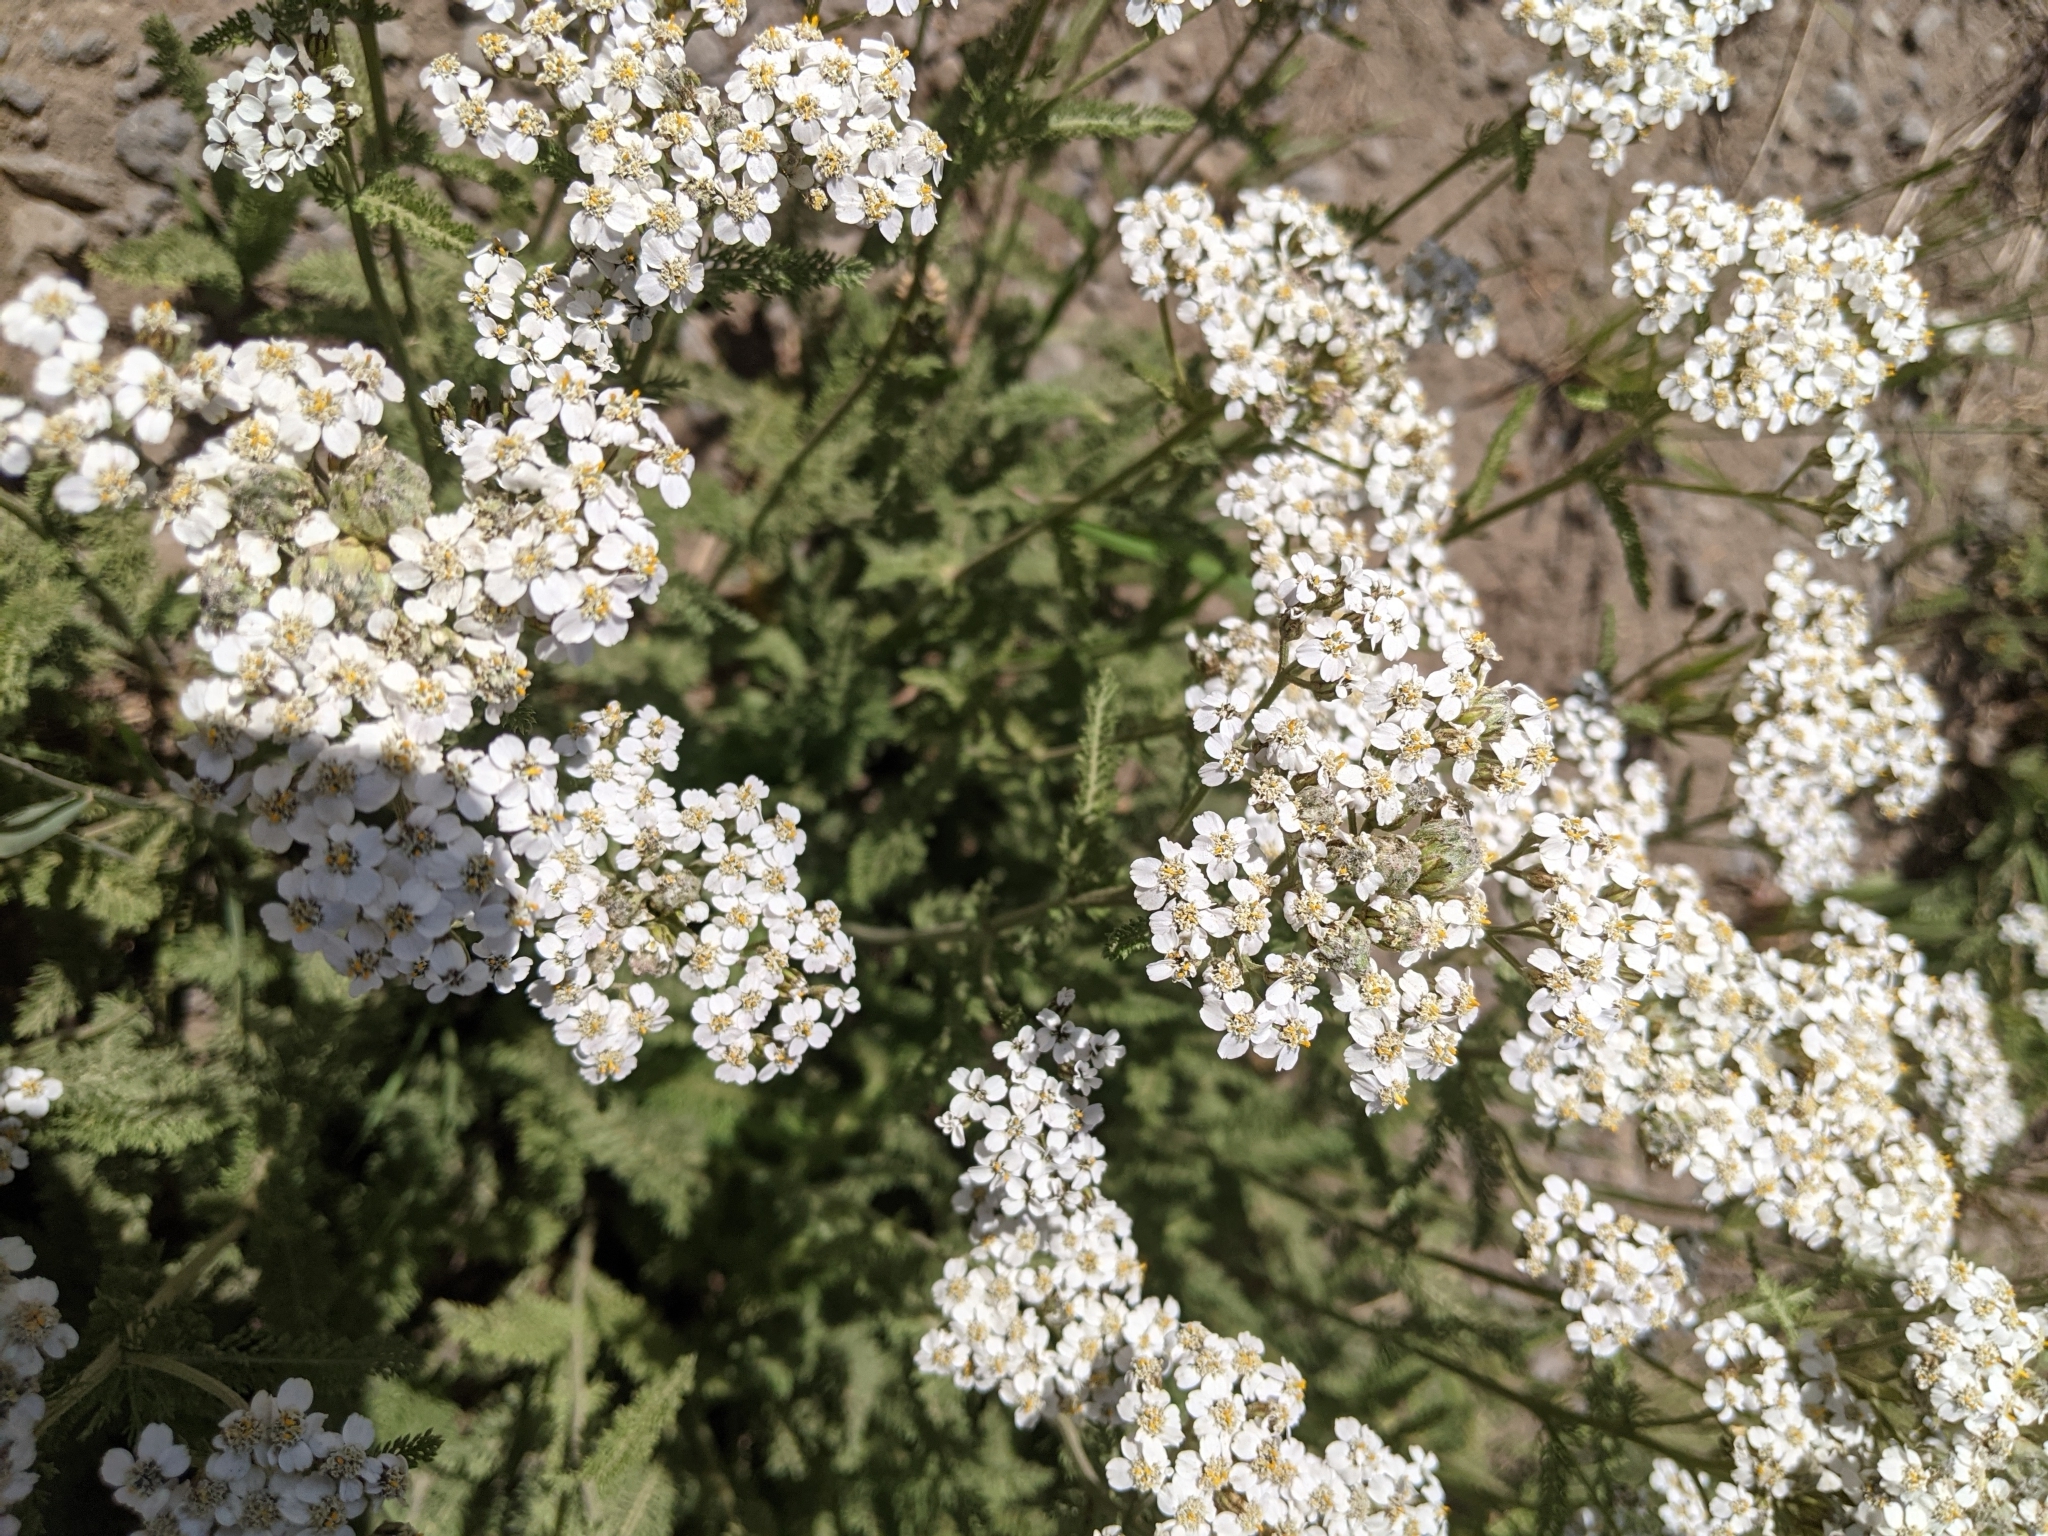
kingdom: Plantae
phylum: Tracheophyta
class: Magnoliopsida
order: Asterales
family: Asteraceae
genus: Achillea
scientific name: Achillea millefolium
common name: Yarrow
